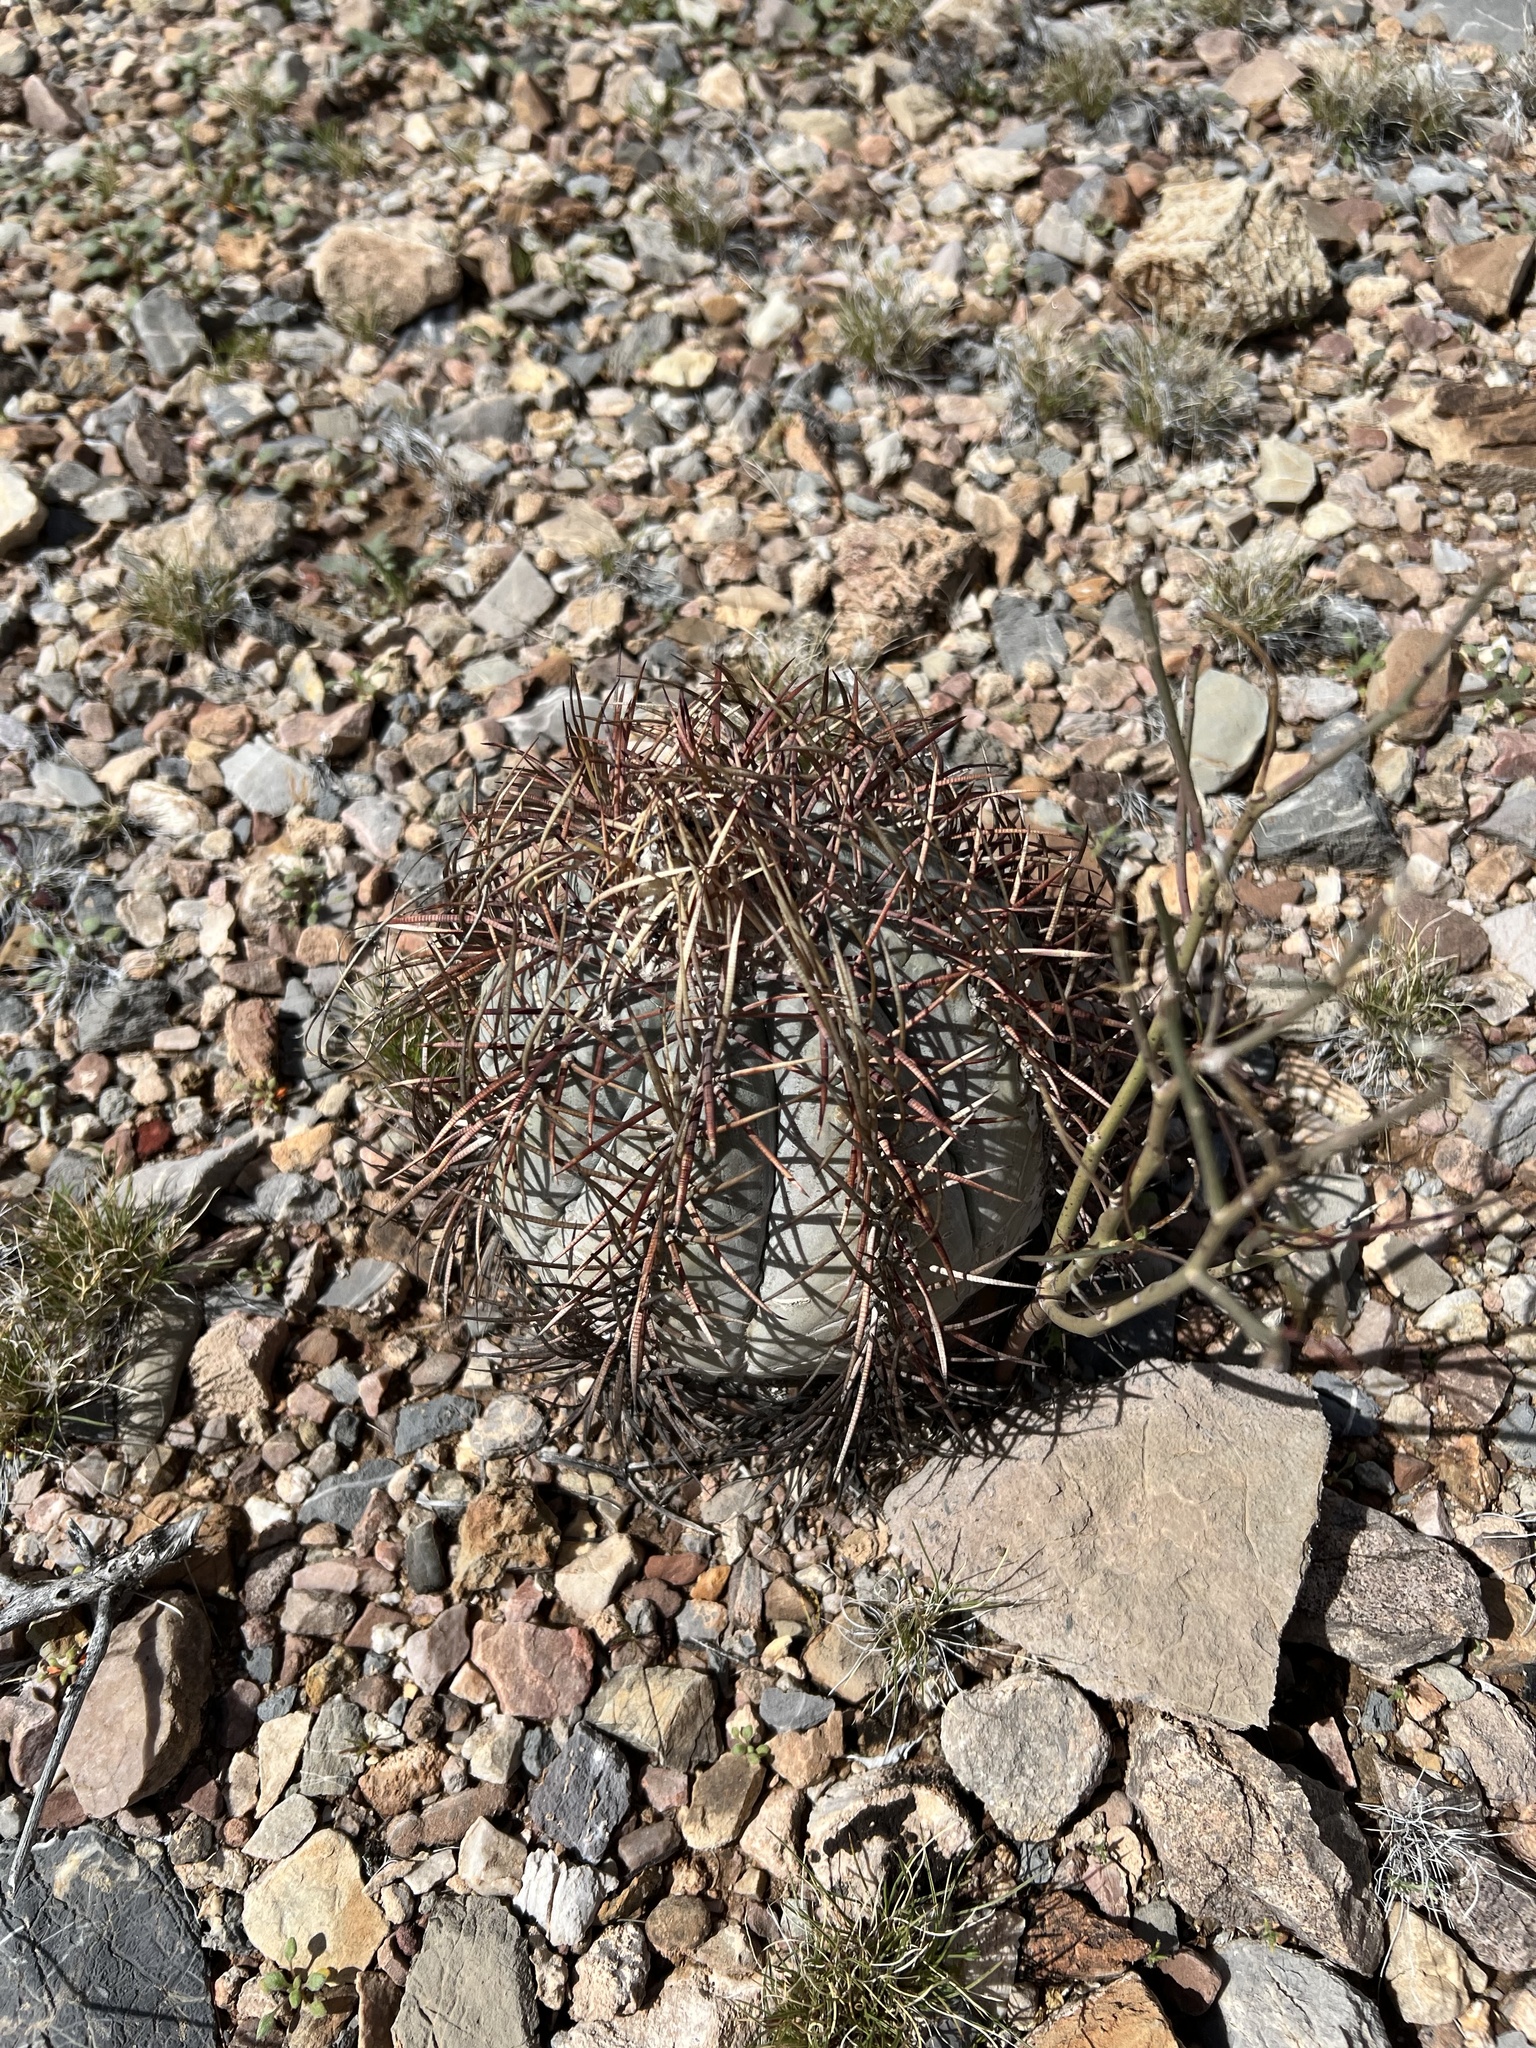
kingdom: Plantae
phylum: Tracheophyta
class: Magnoliopsida
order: Caryophyllales
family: Cactaceae
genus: Echinocactus
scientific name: Echinocactus horizonthalonius
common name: Devilshead
